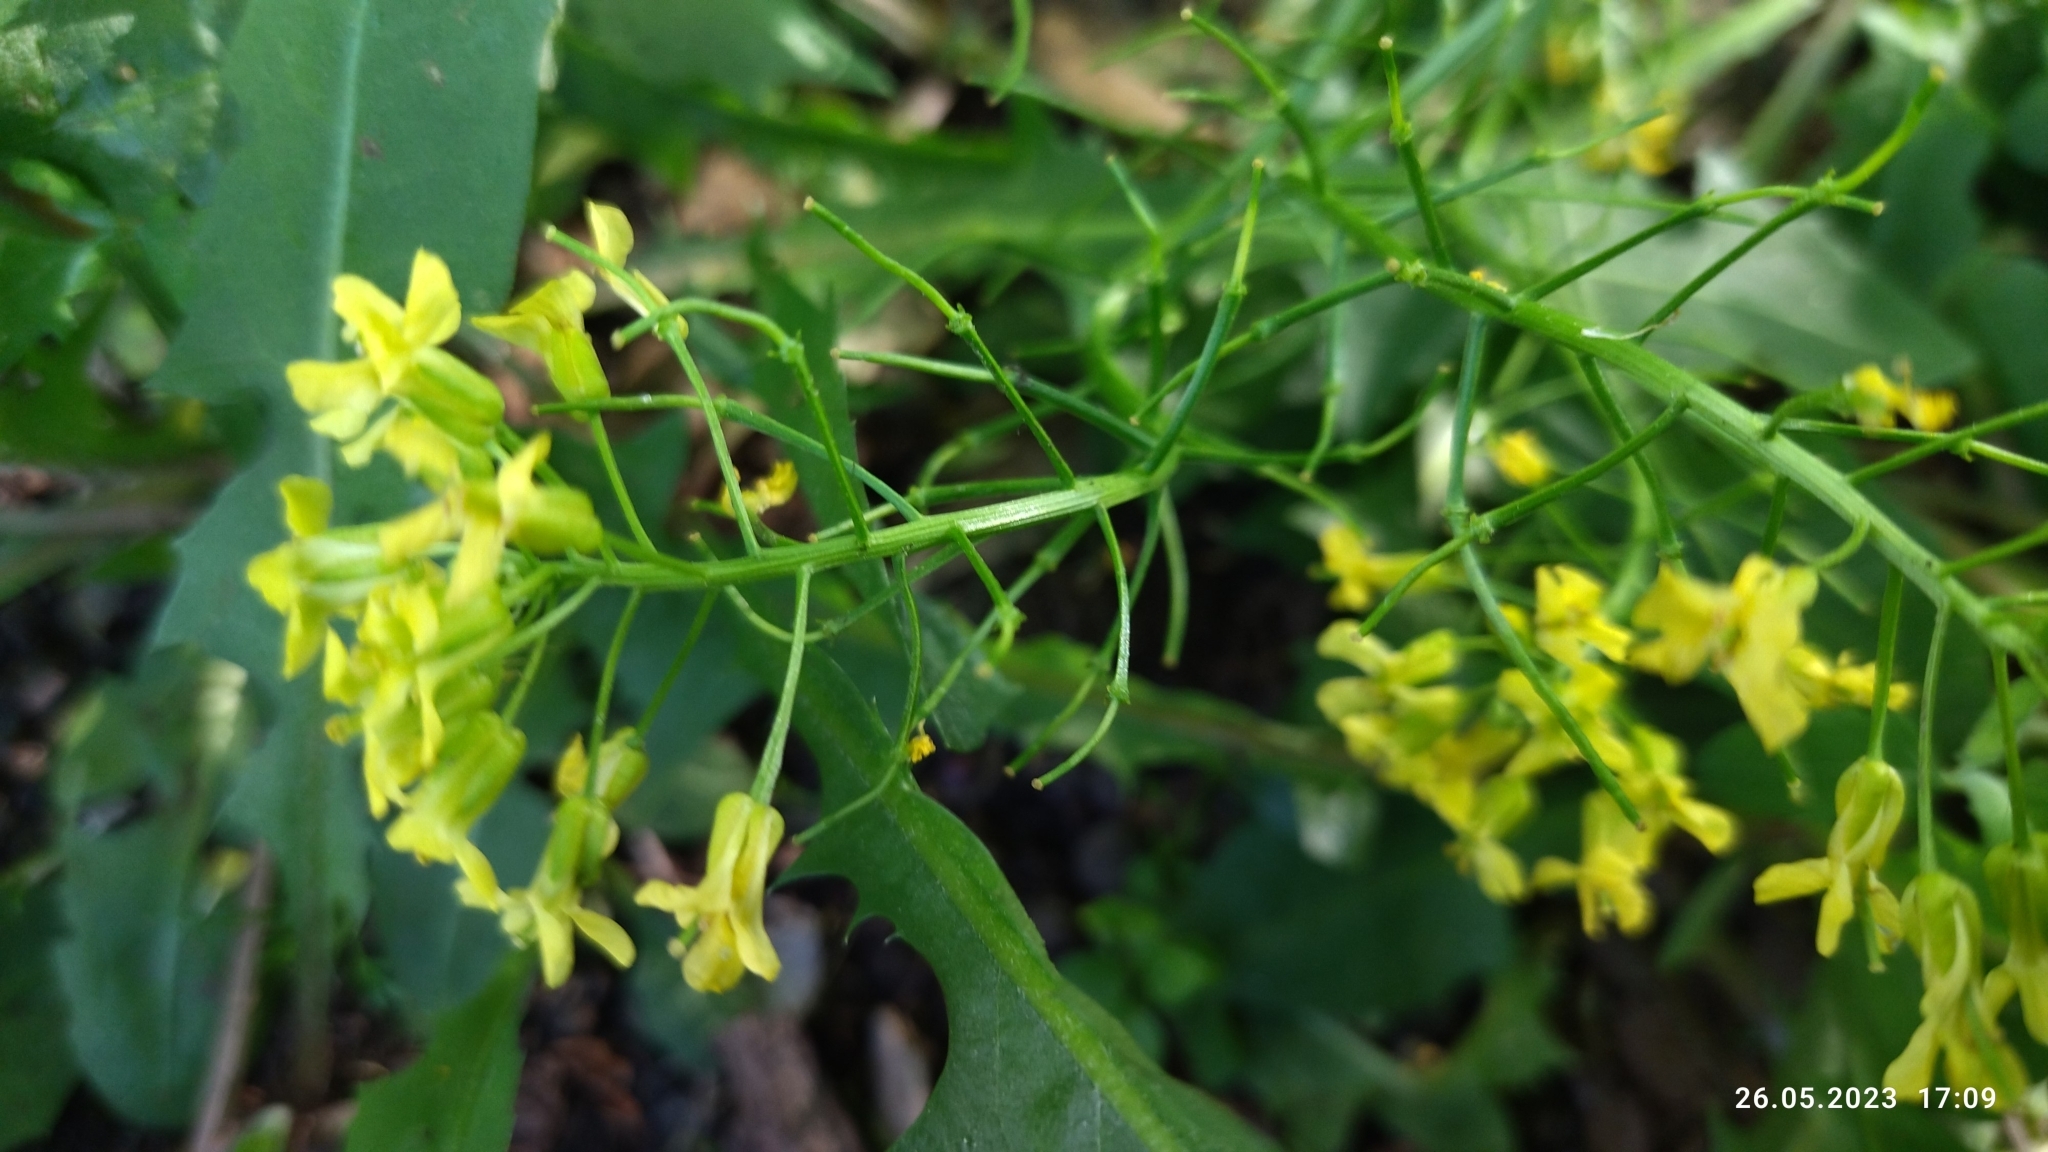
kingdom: Plantae
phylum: Tracheophyta
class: Magnoliopsida
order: Brassicales
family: Brassicaceae
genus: Barbarea
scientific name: Barbarea vulgaris
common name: Cressy-greens
